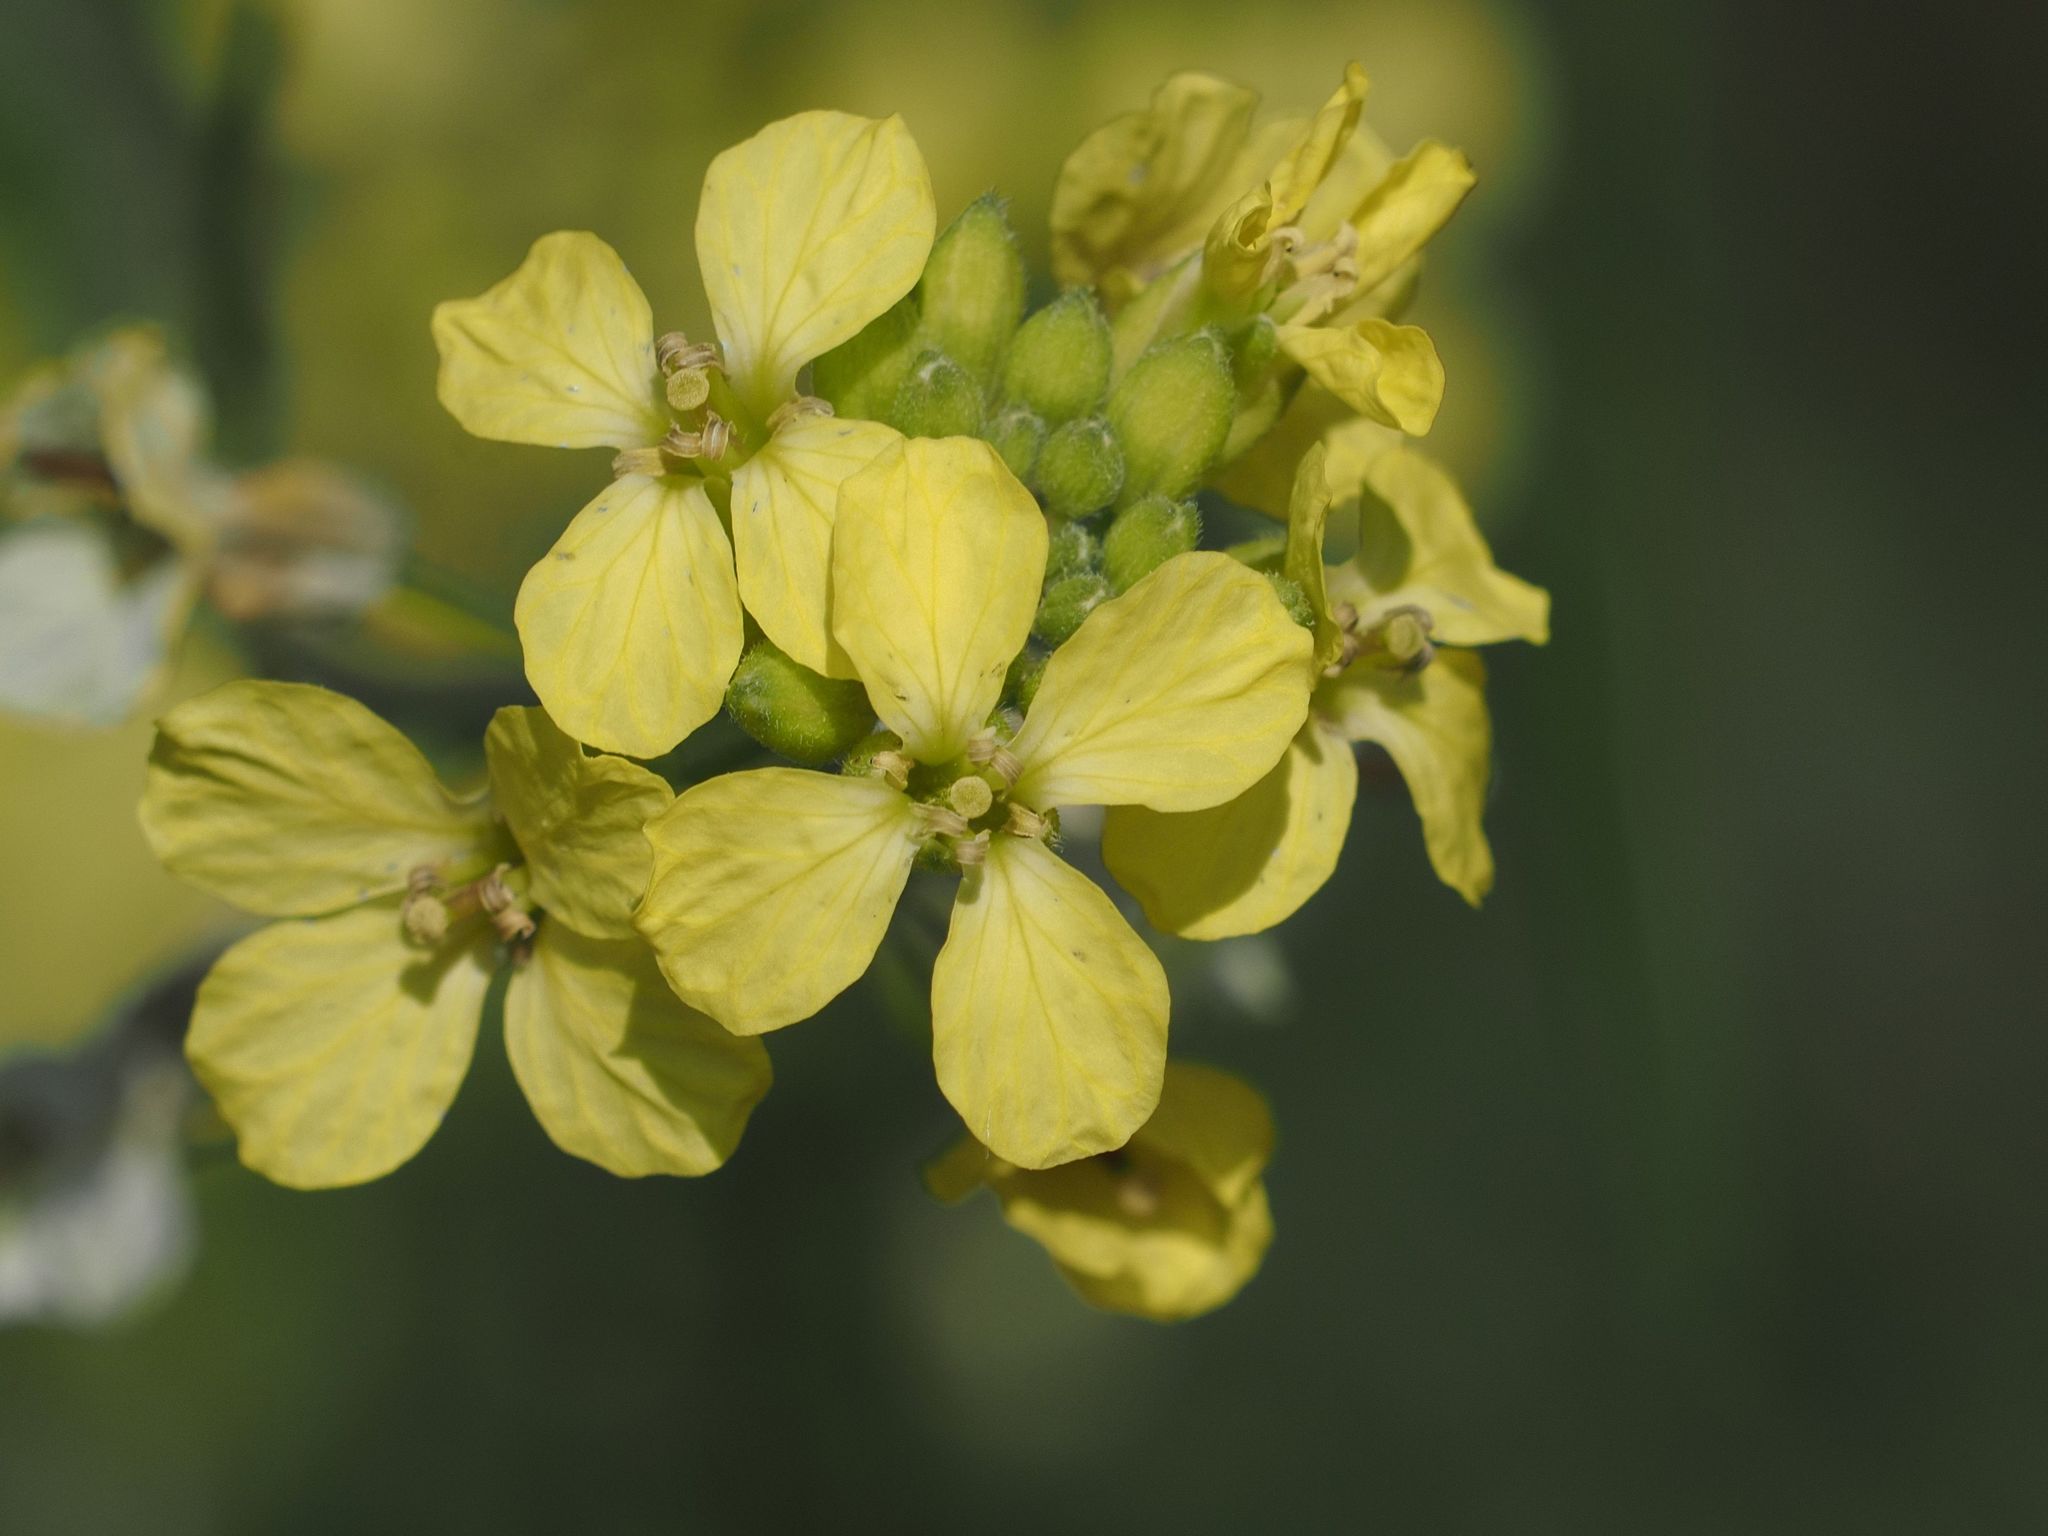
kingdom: Plantae
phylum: Tracheophyta
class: Magnoliopsida
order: Brassicales
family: Brassicaceae
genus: Sisymbrium
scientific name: Sisymbrium orientale
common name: Eastern rocket
